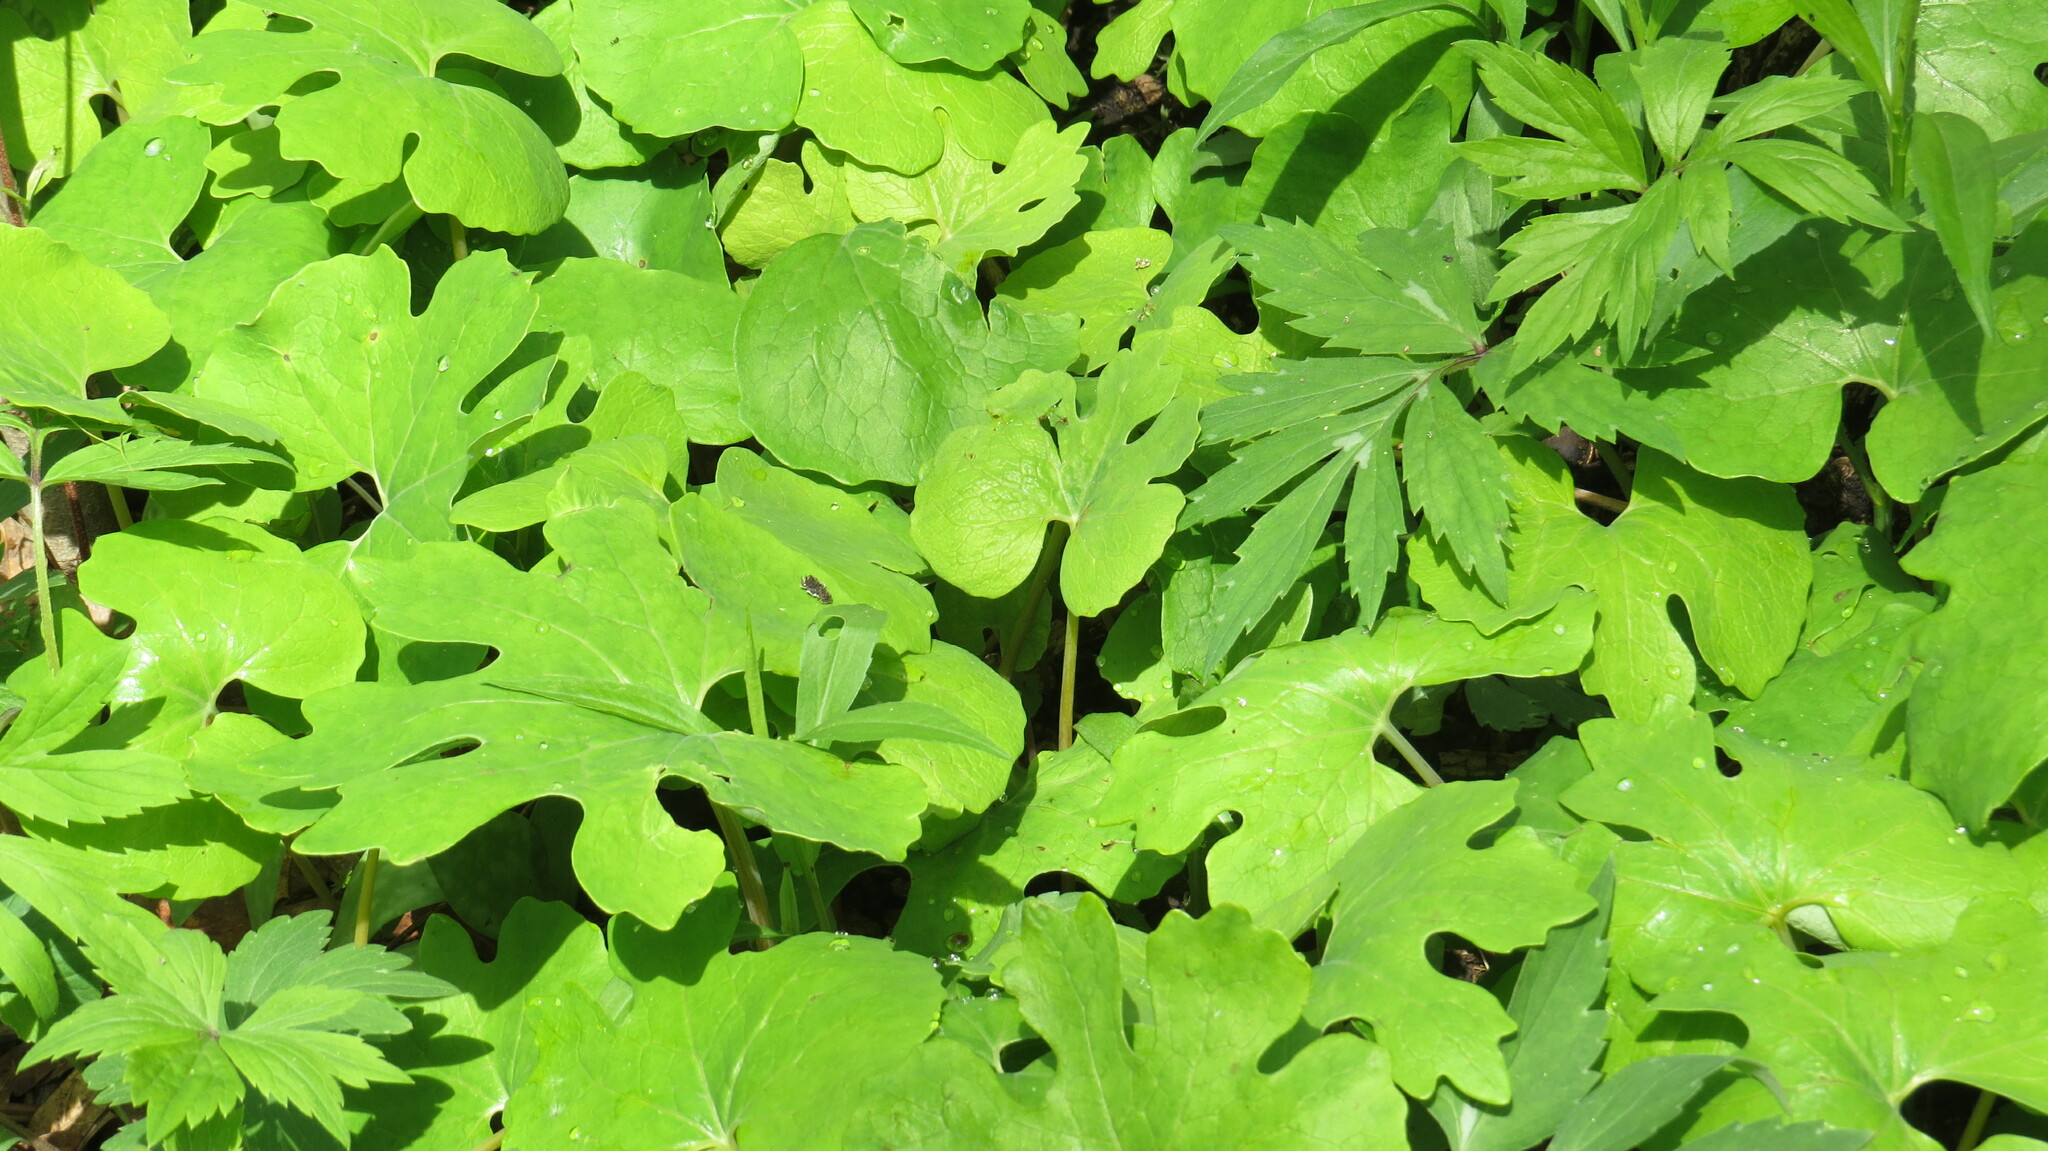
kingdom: Plantae
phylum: Tracheophyta
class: Magnoliopsida
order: Ranunculales
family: Papaveraceae
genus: Sanguinaria
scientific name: Sanguinaria canadensis
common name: Bloodroot
